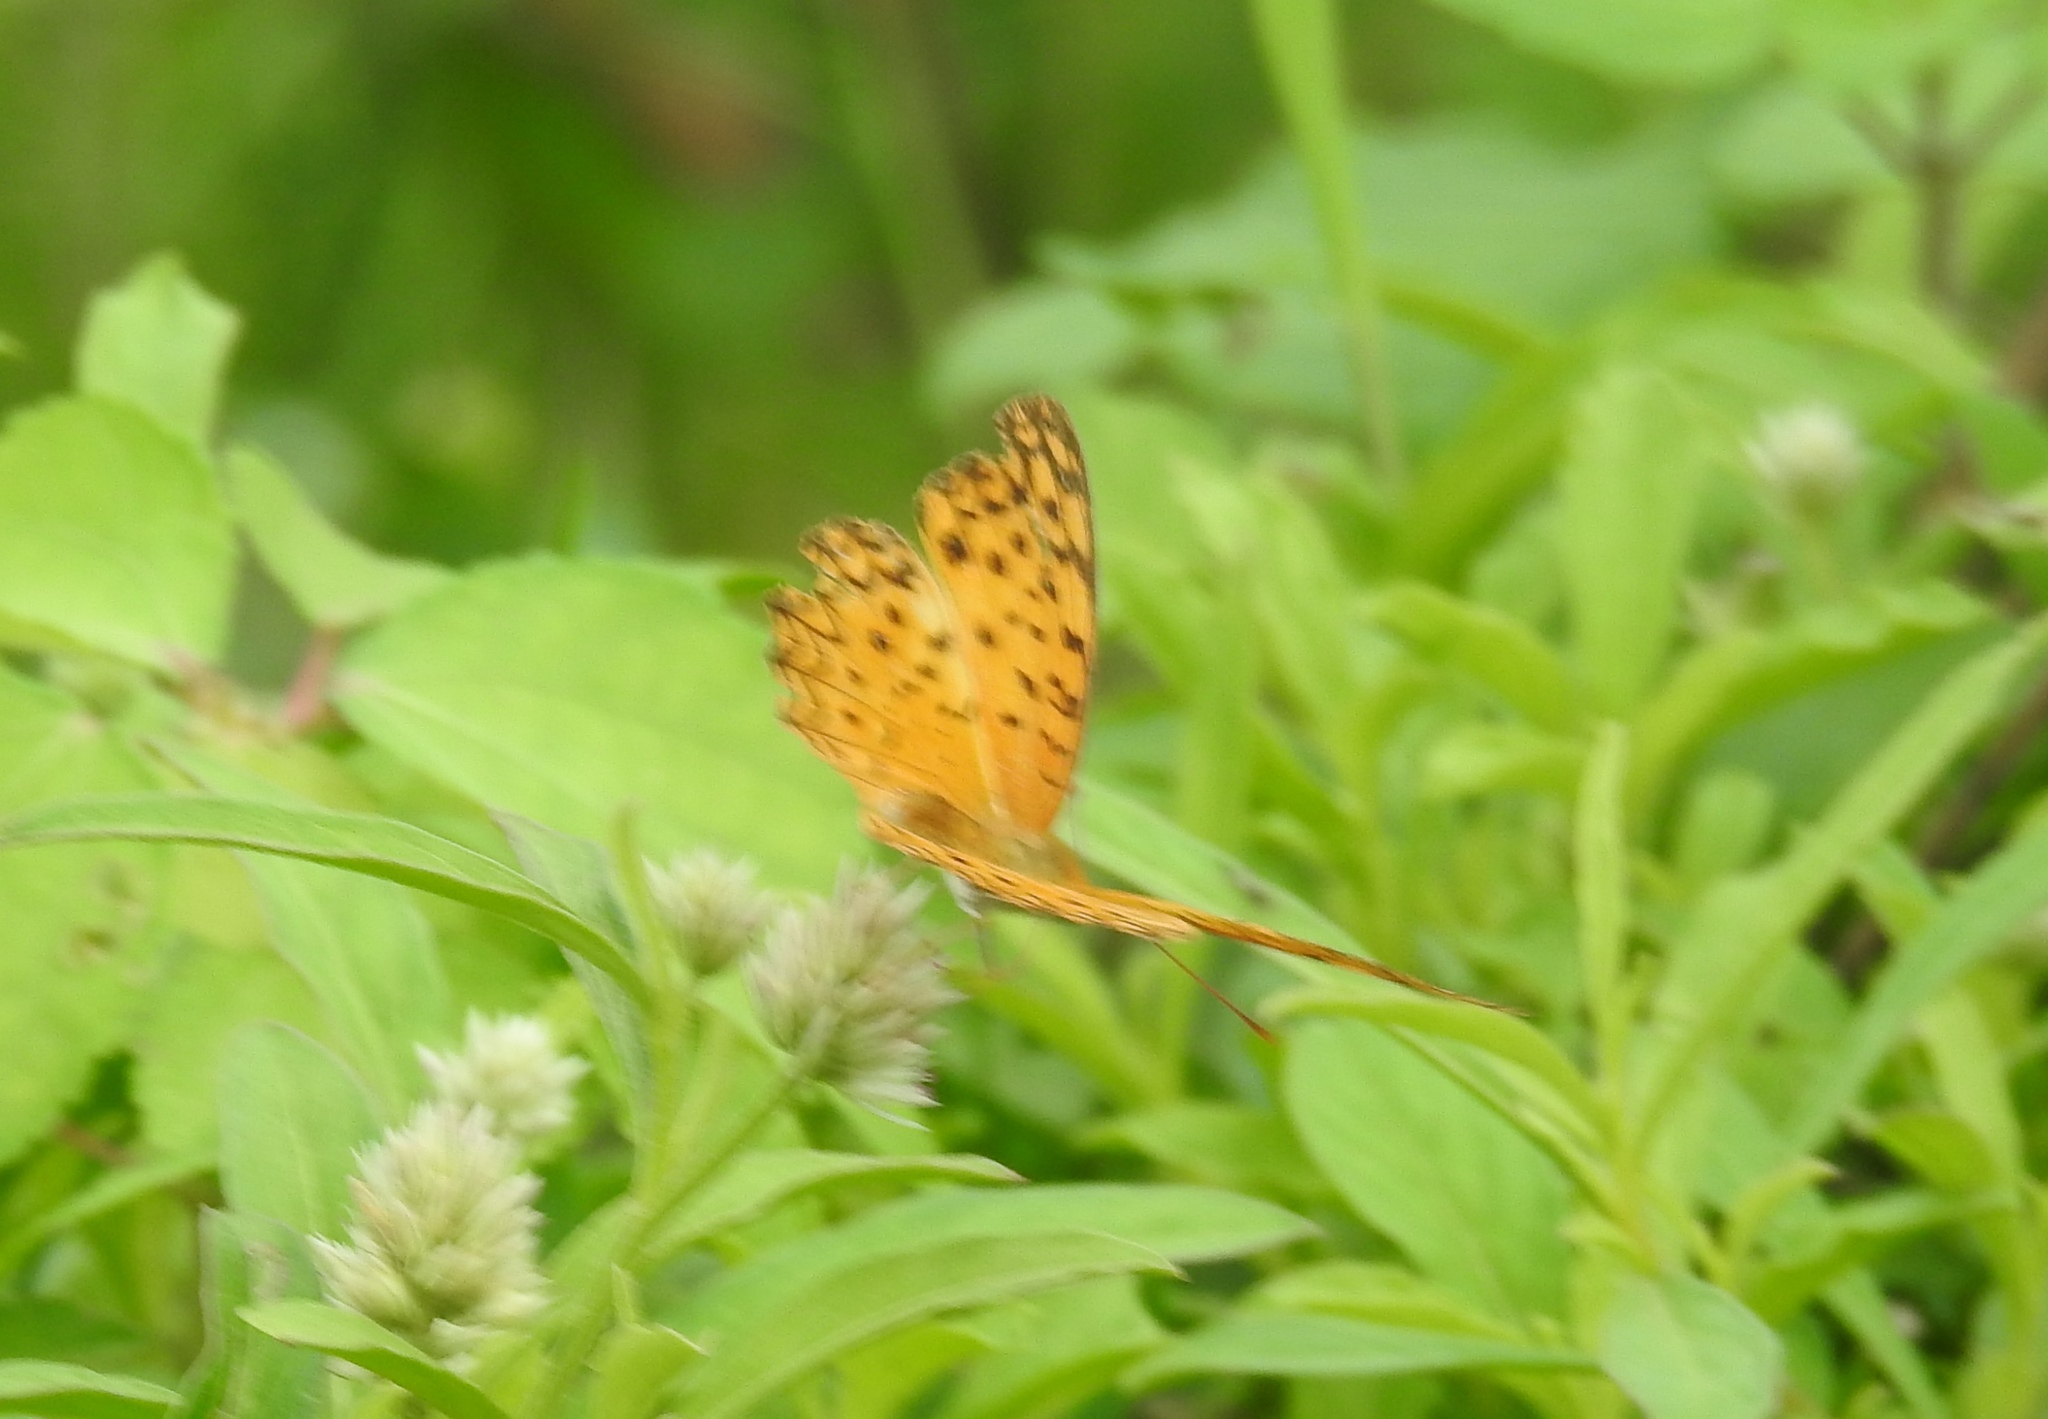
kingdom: Animalia
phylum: Arthropoda
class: Insecta
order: Lepidoptera
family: Nymphalidae
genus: Phalanta
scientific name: Phalanta phalantha
